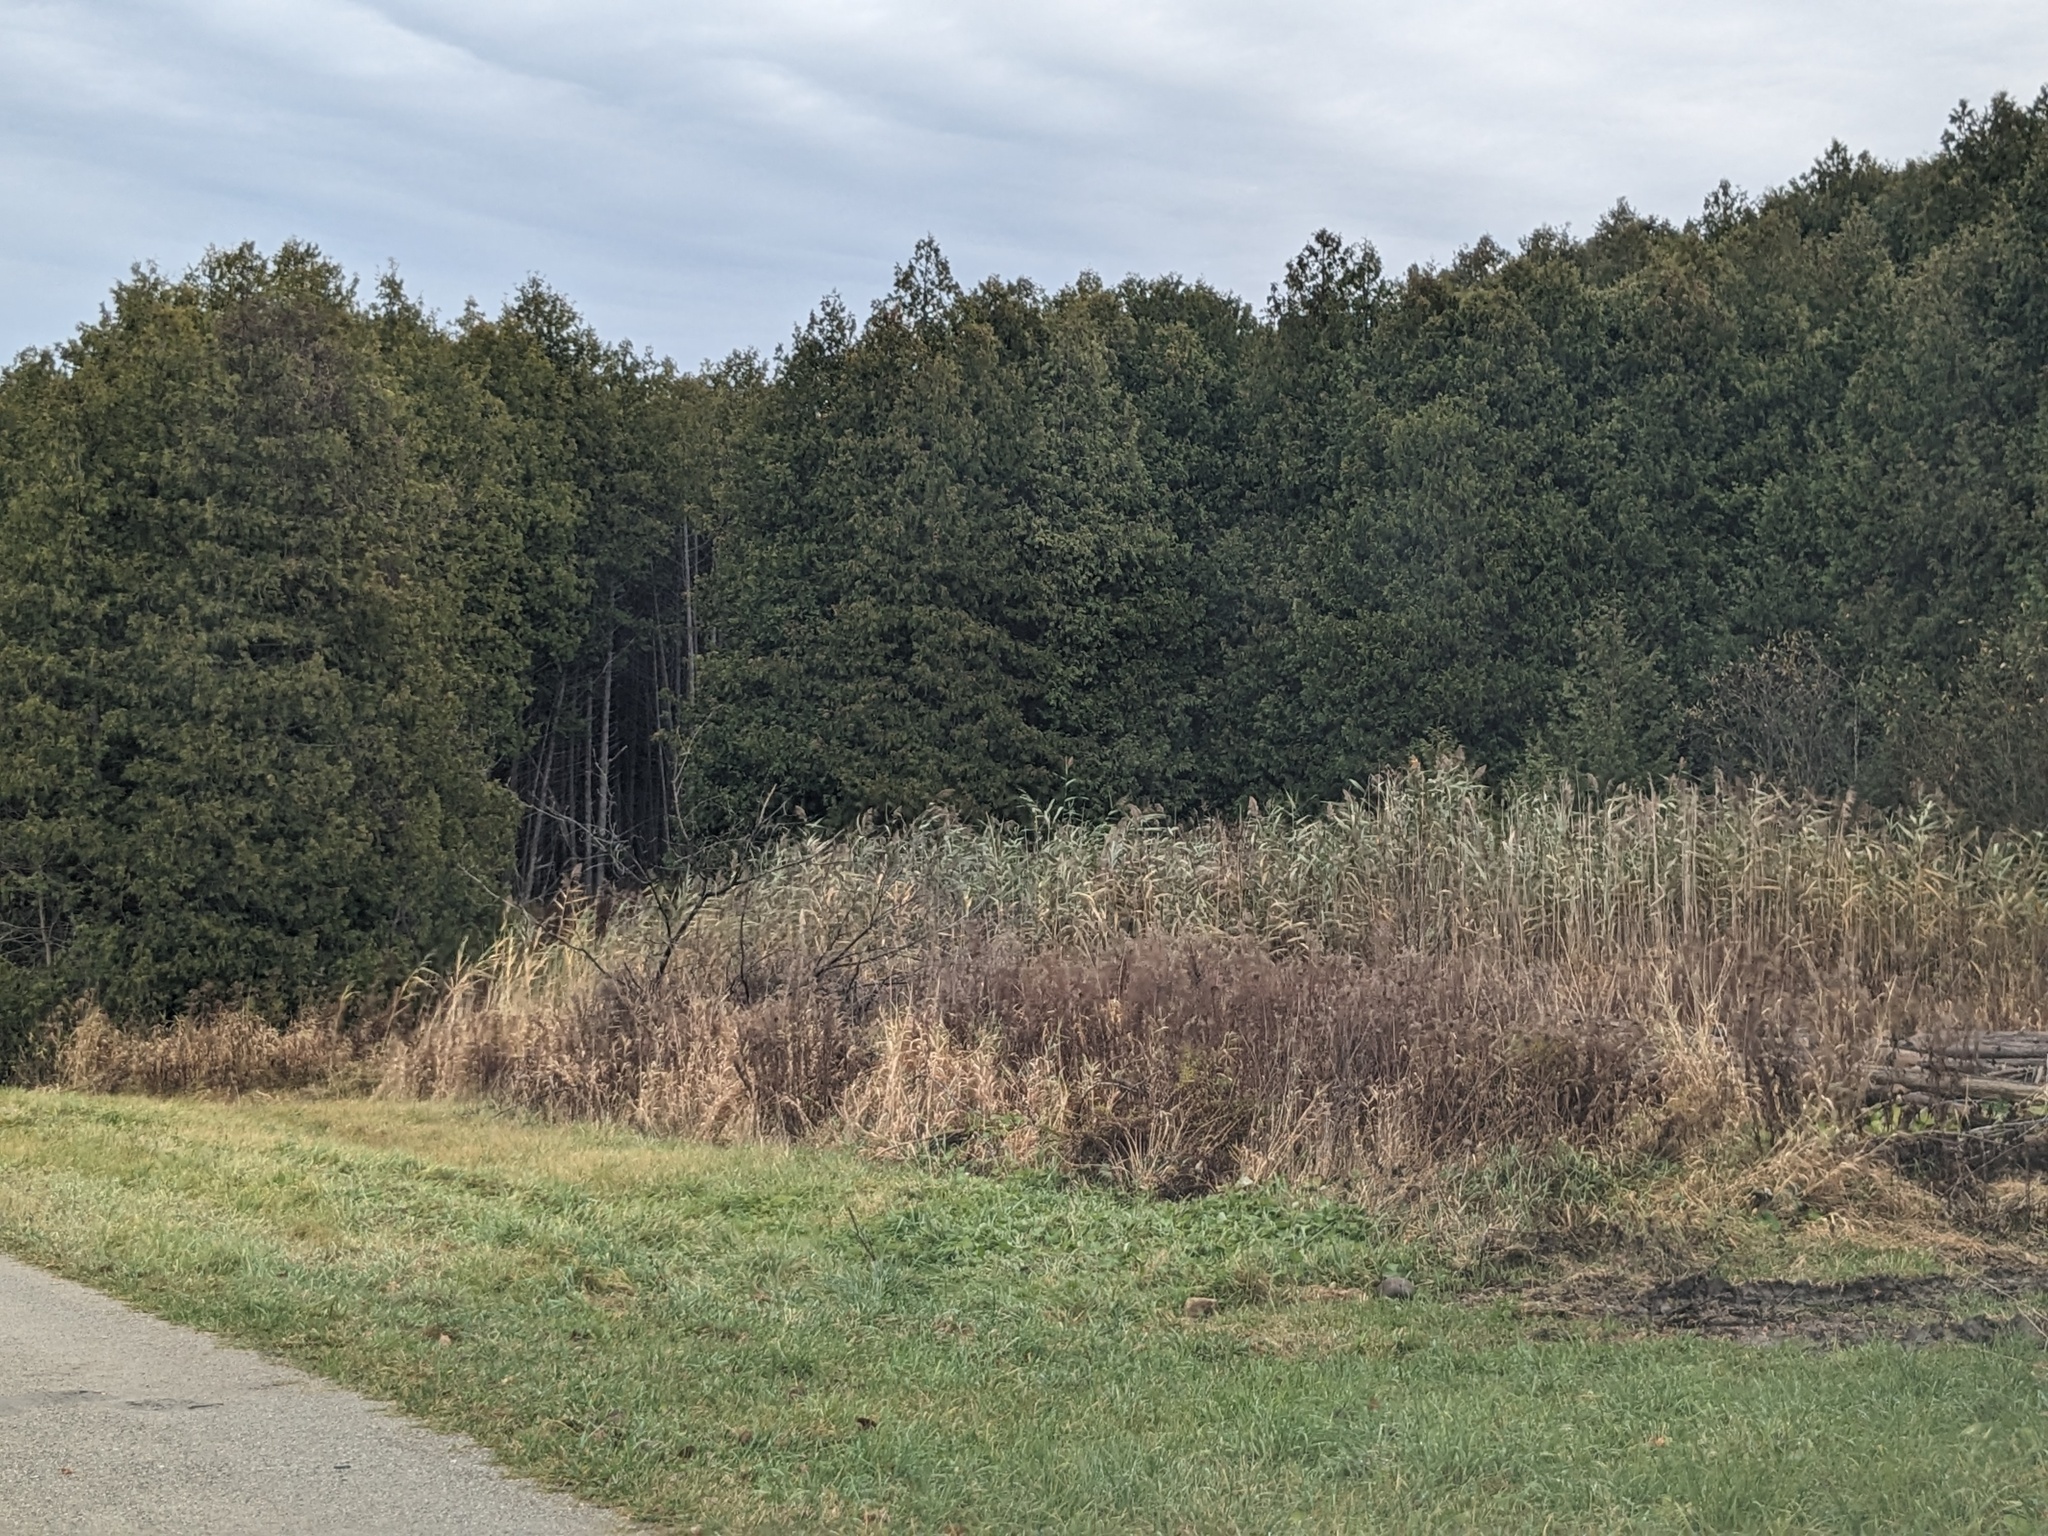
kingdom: Plantae
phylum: Tracheophyta
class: Liliopsida
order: Poales
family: Poaceae
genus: Phragmites
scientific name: Phragmites australis
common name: Common reed
